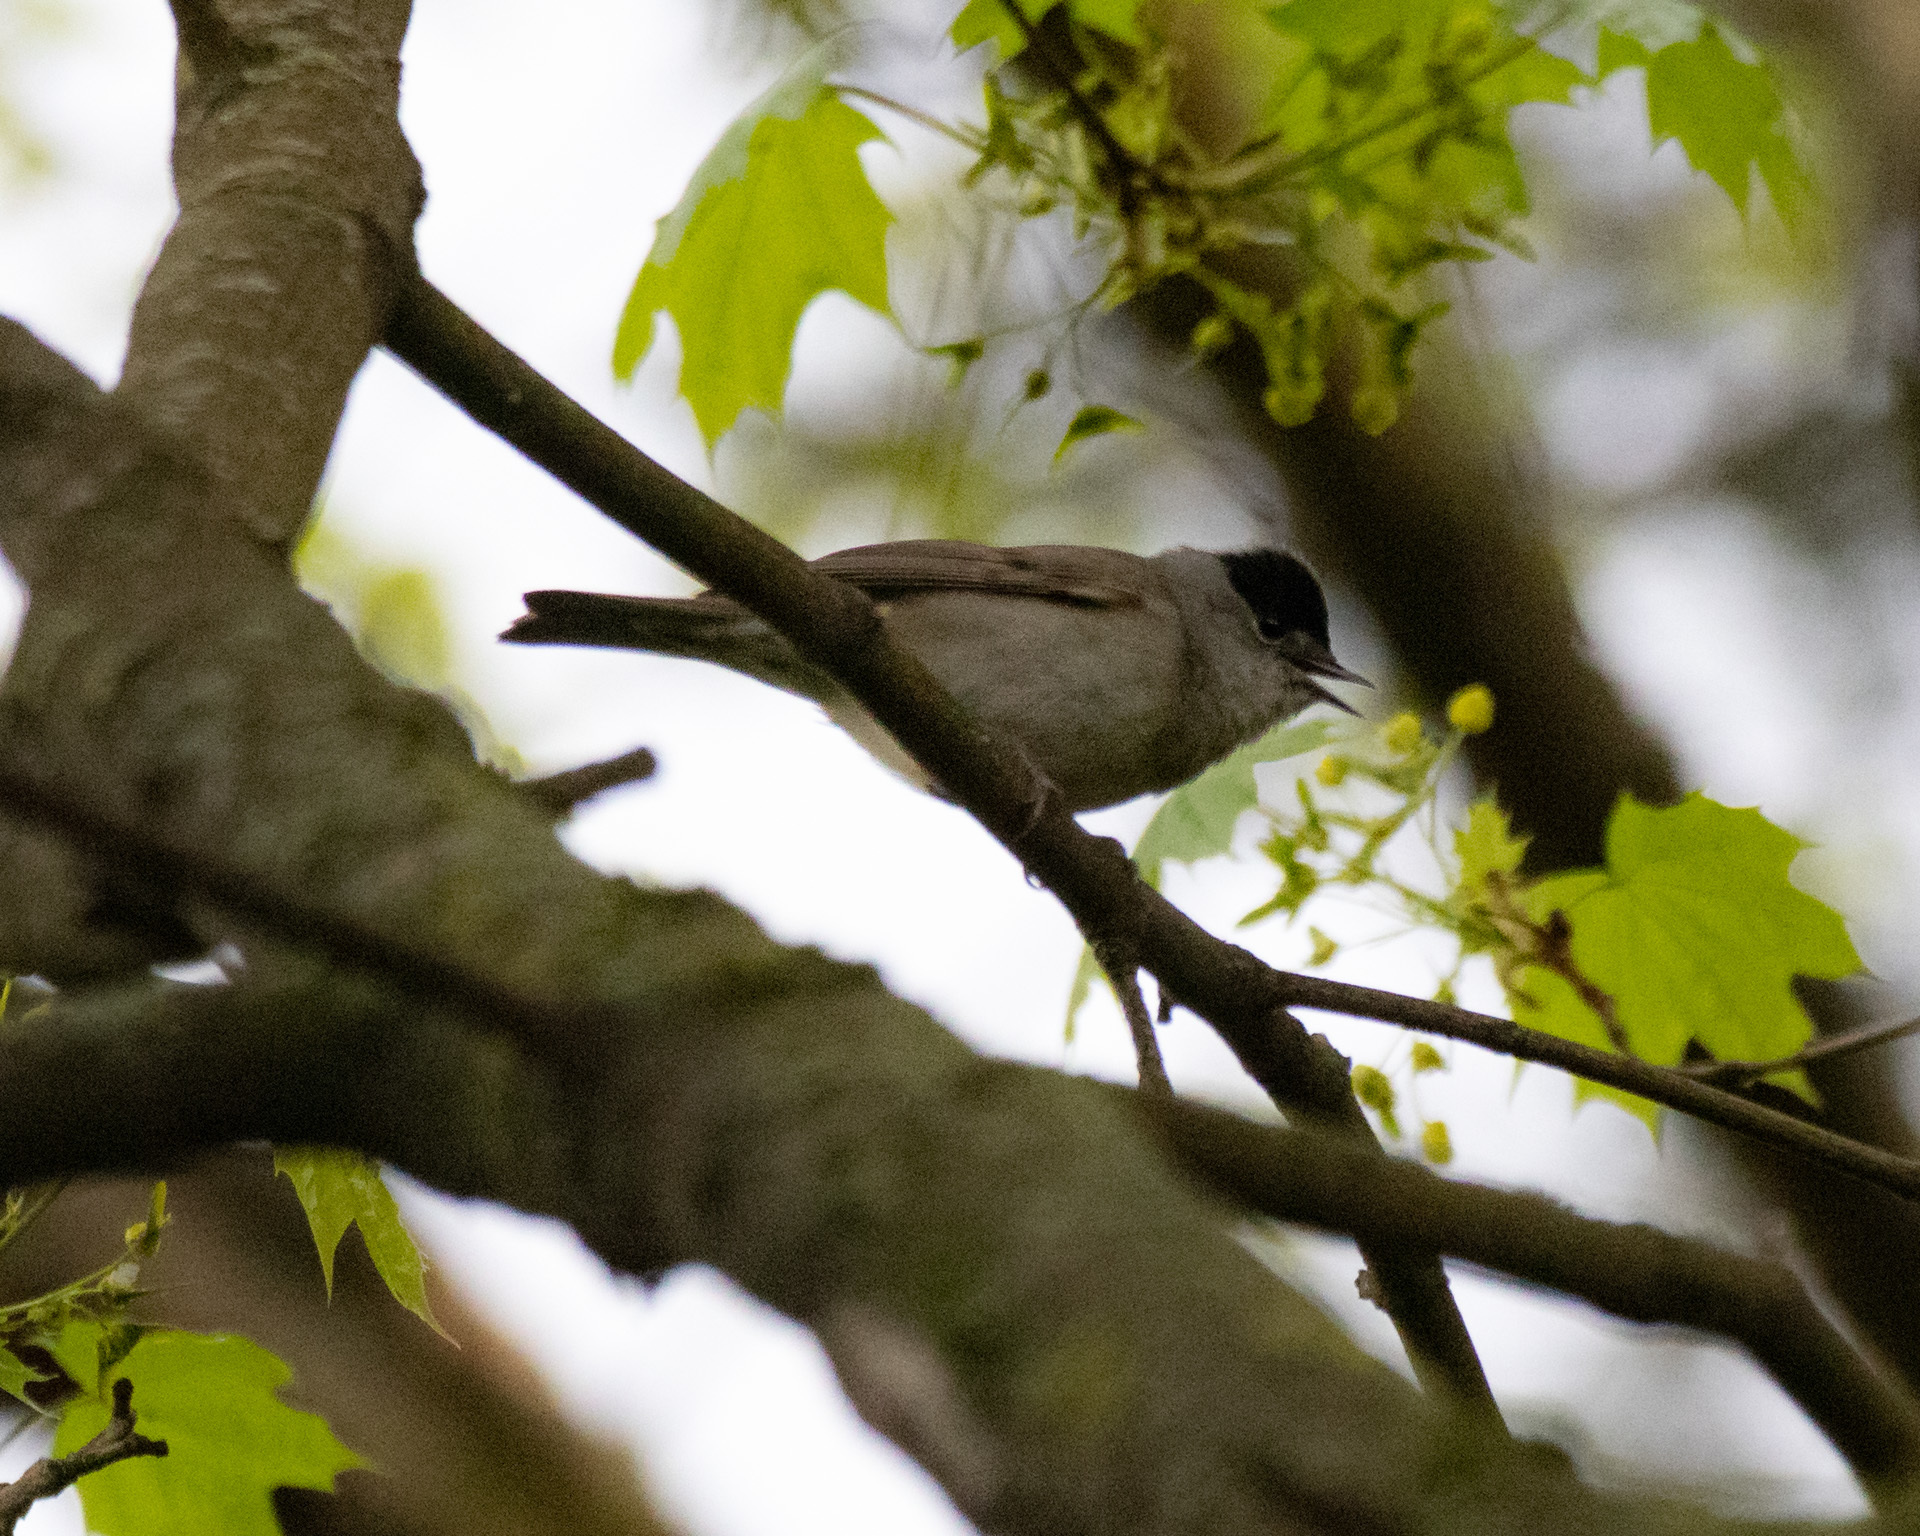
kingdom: Animalia
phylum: Chordata
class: Aves
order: Passeriformes
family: Sylviidae
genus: Sylvia
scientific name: Sylvia atricapilla
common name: Eurasian blackcap
